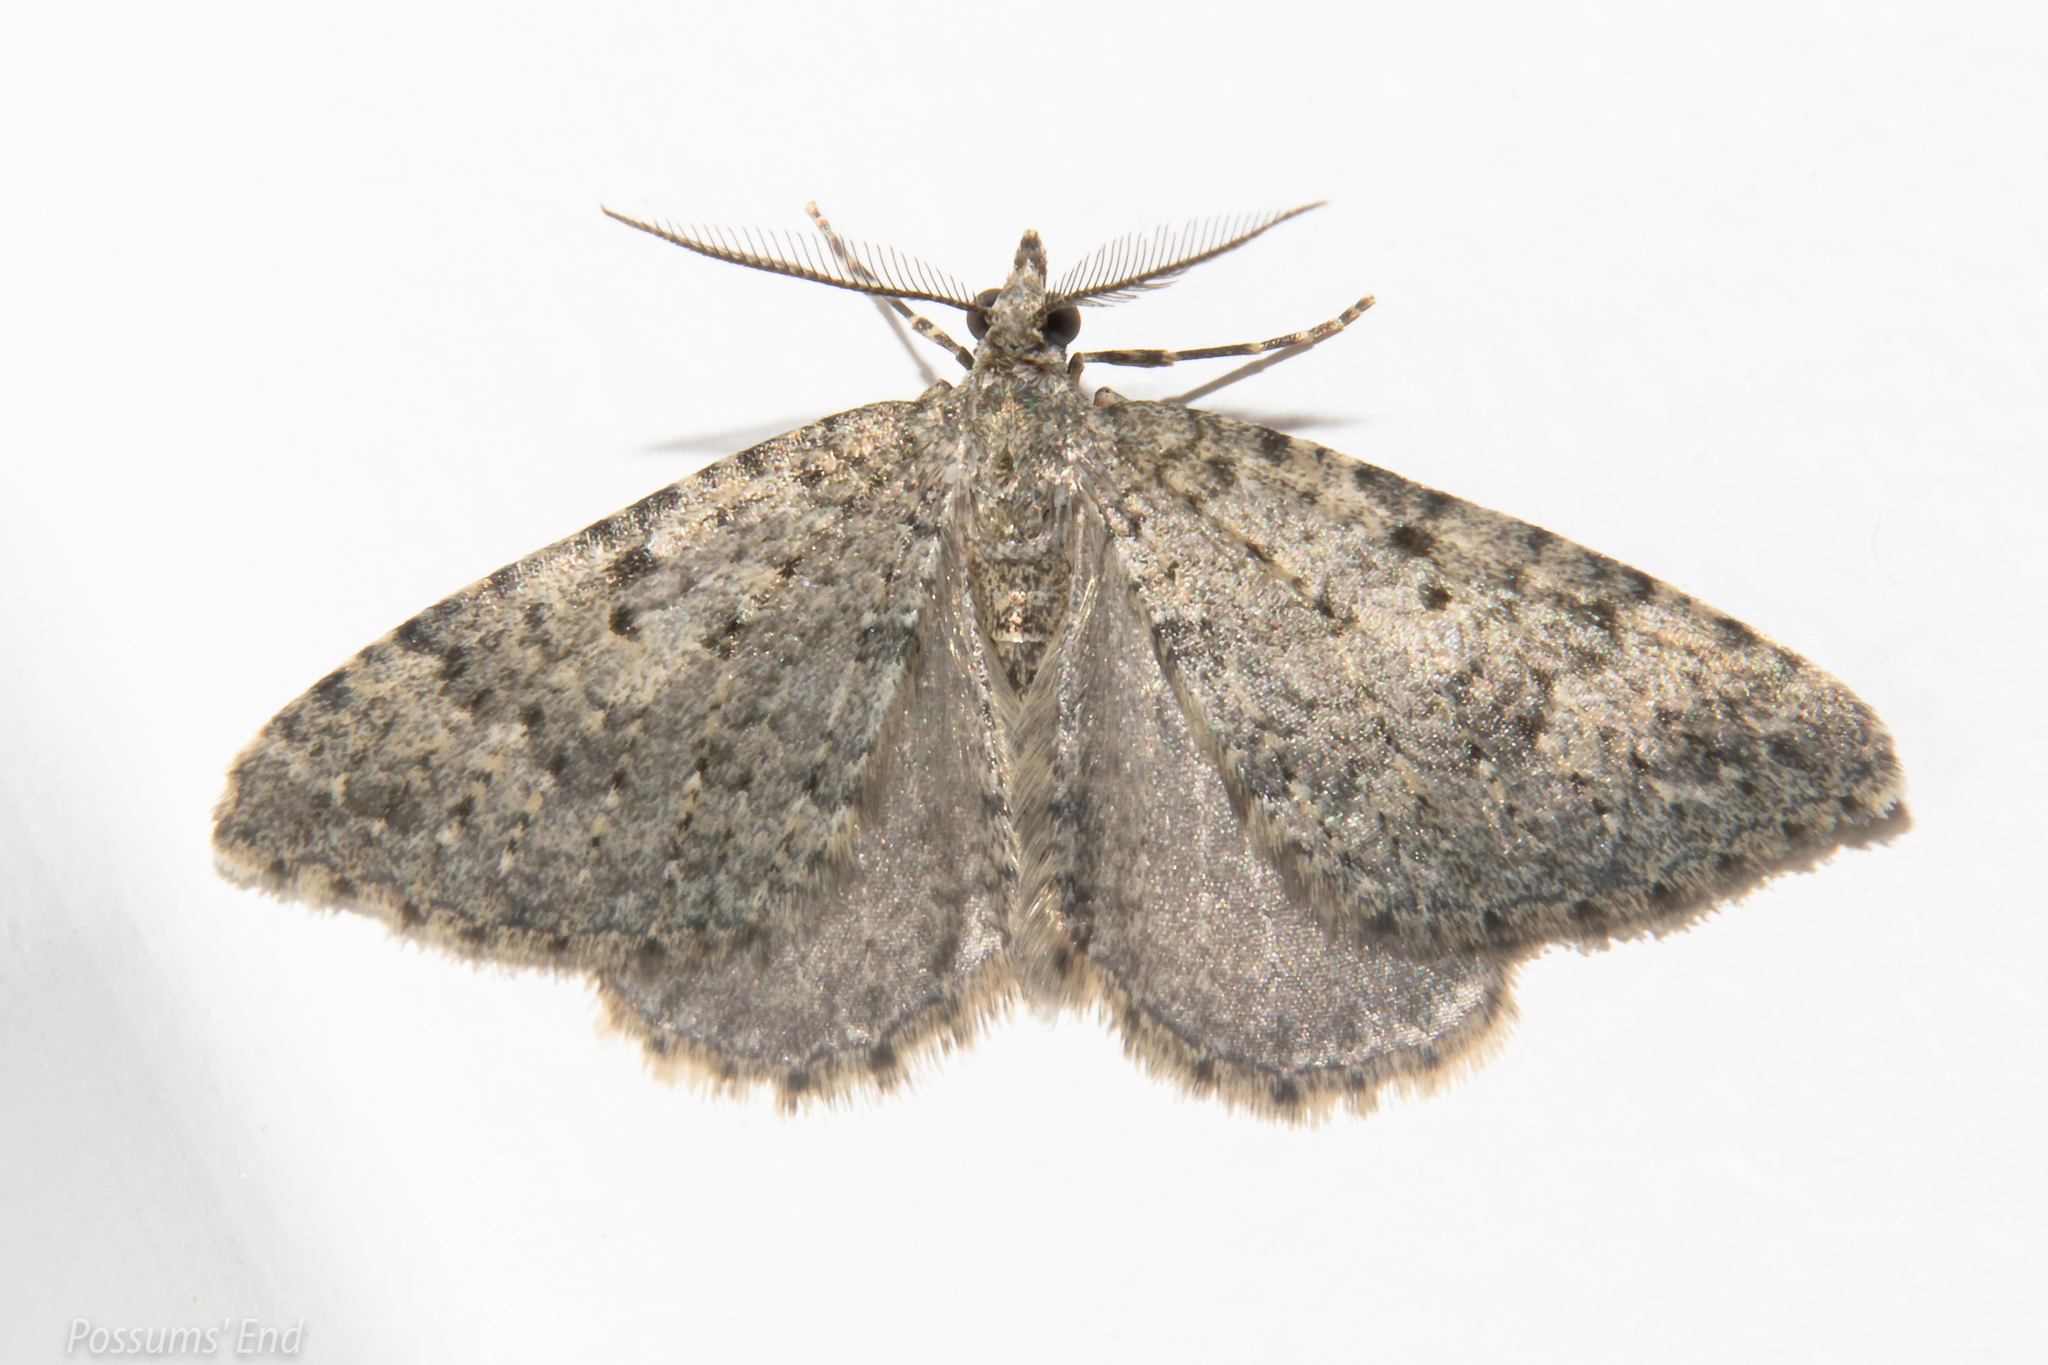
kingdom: Animalia
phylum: Arthropoda
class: Insecta
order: Lepidoptera
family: Geometridae
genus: Helastia
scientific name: Helastia corcularia
